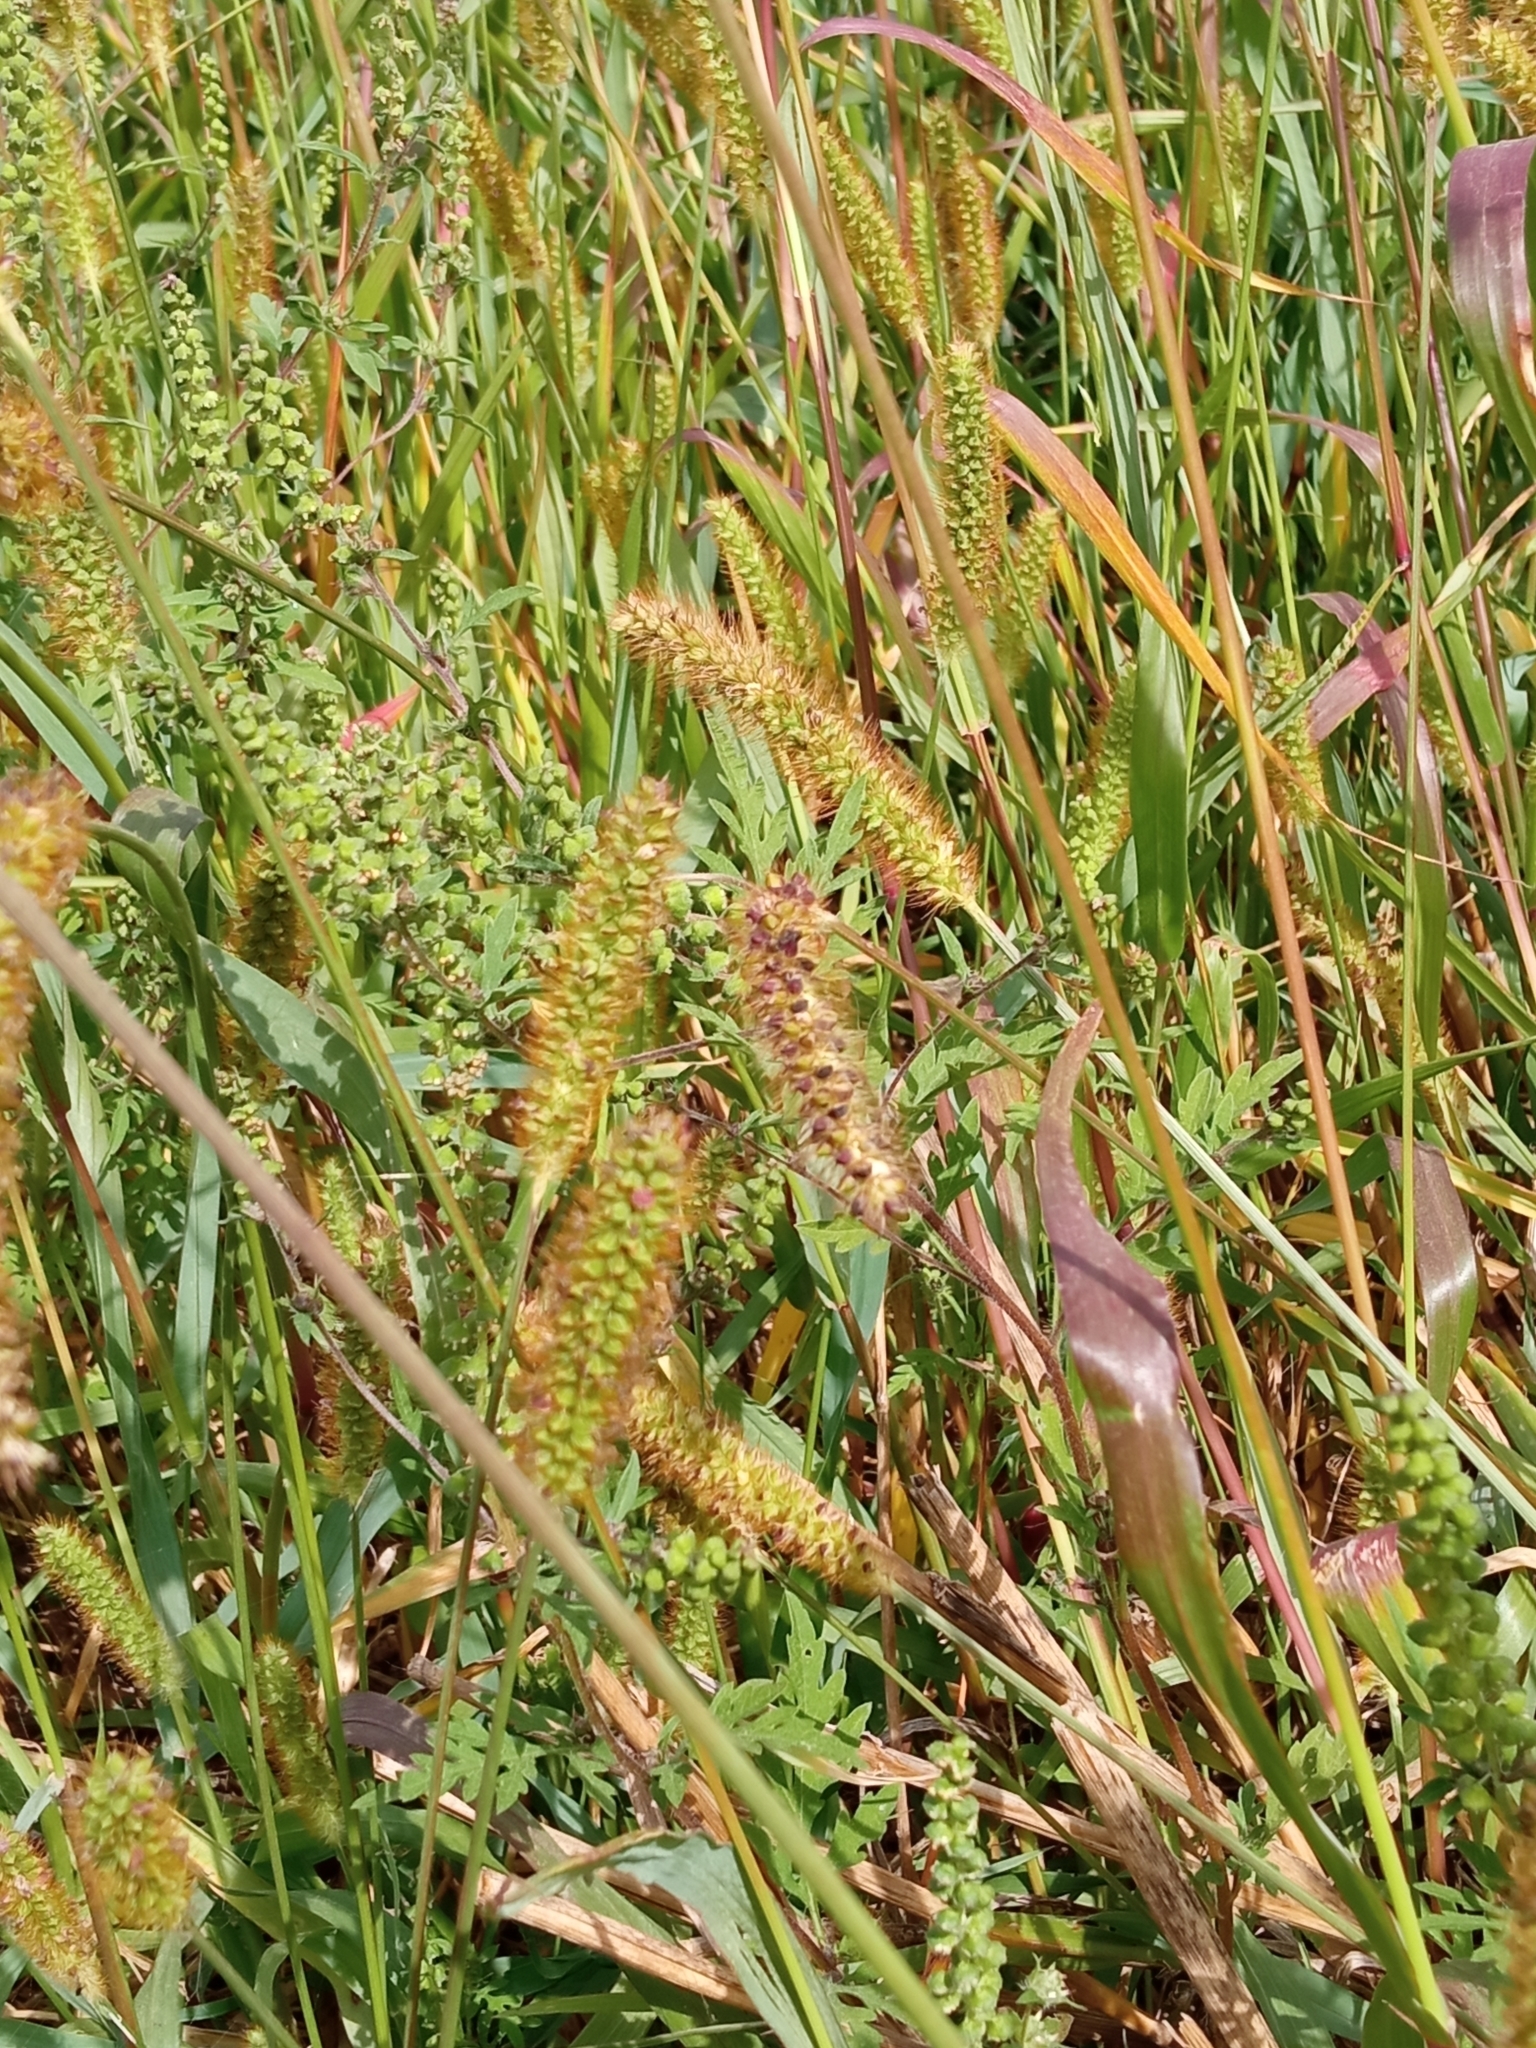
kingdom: Plantae
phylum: Tracheophyta
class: Liliopsida
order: Poales
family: Poaceae
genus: Setaria
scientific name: Setaria pumila
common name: Yellow bristle-grass
